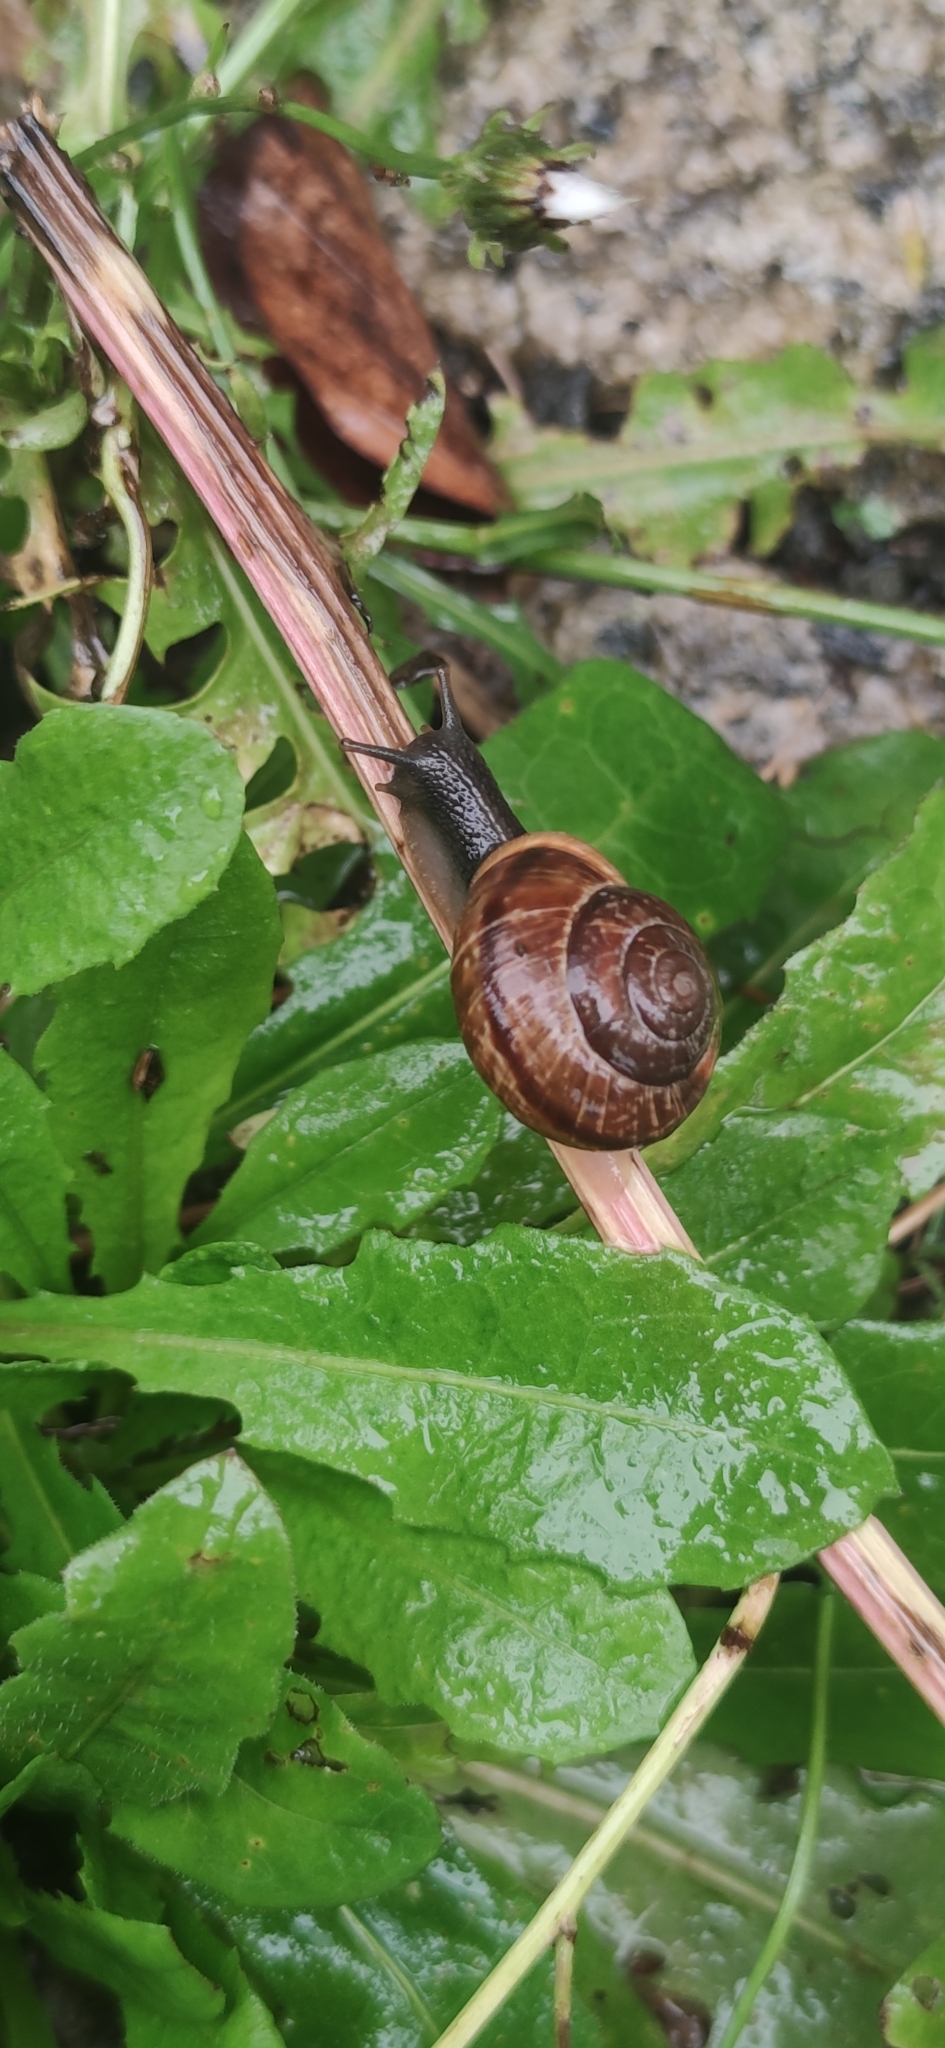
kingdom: Animalia
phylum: Mollusca
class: Gastropoda
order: Stylommatophora
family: Helicidae
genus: Arianta
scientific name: Arianta arbustorum
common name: Copse snail
